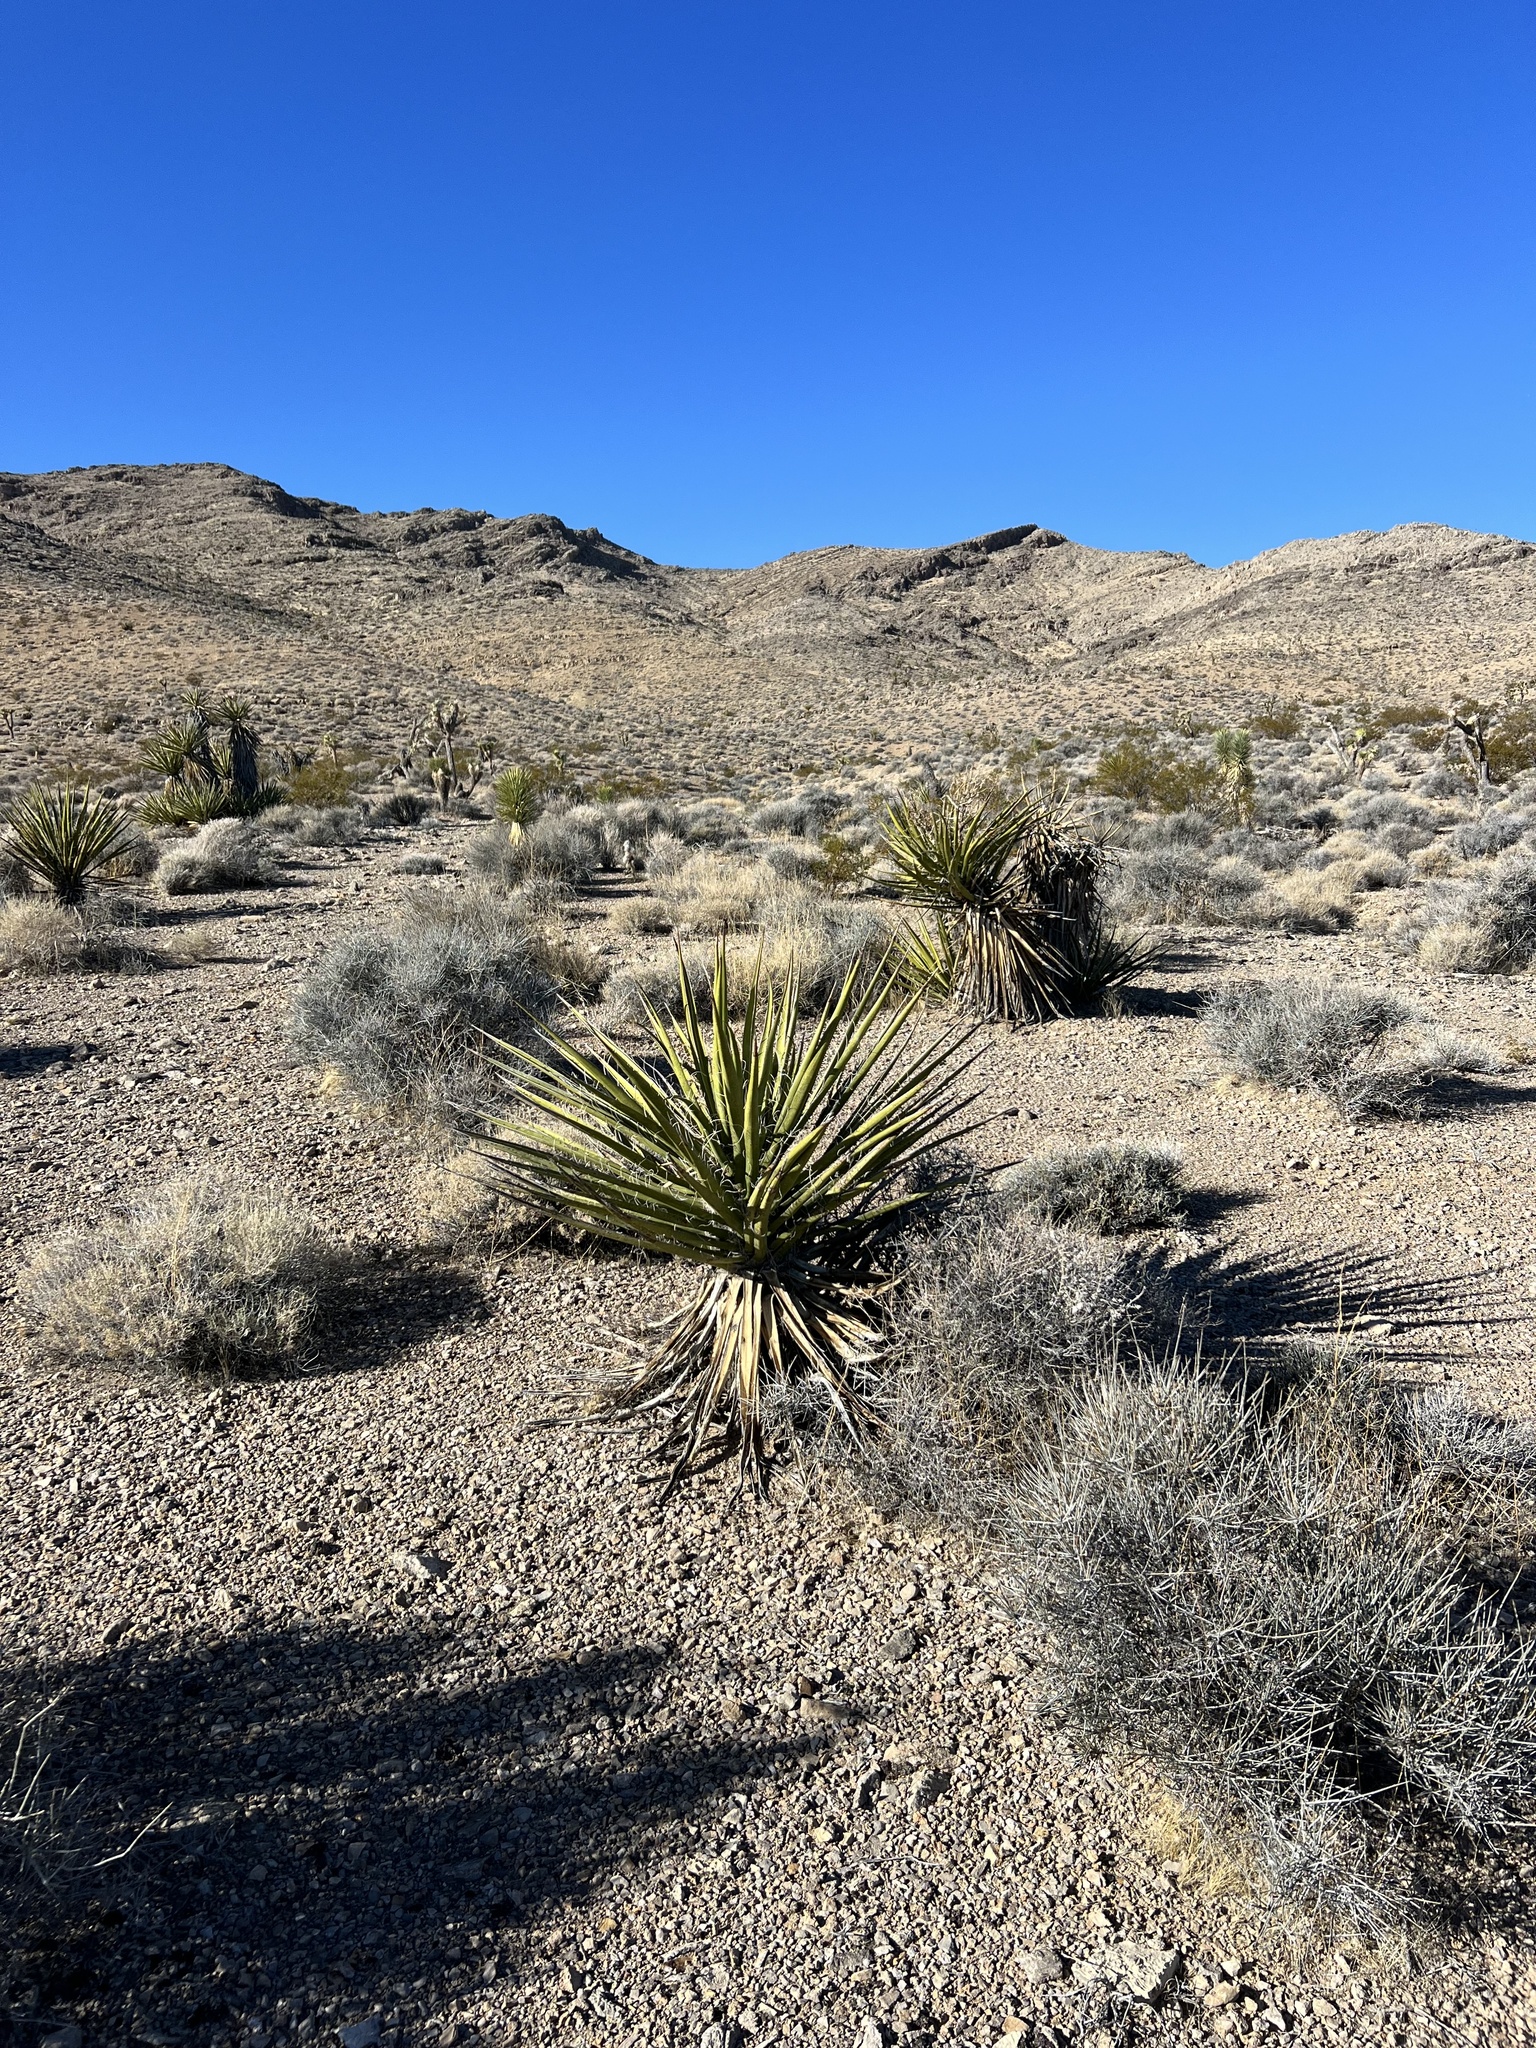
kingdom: Plantae
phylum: Tracheophyta
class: Liliopsida
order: Asparagales
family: Asparagaceae
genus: Yucca
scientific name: Yucca schidigera
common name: Mojave yucca
